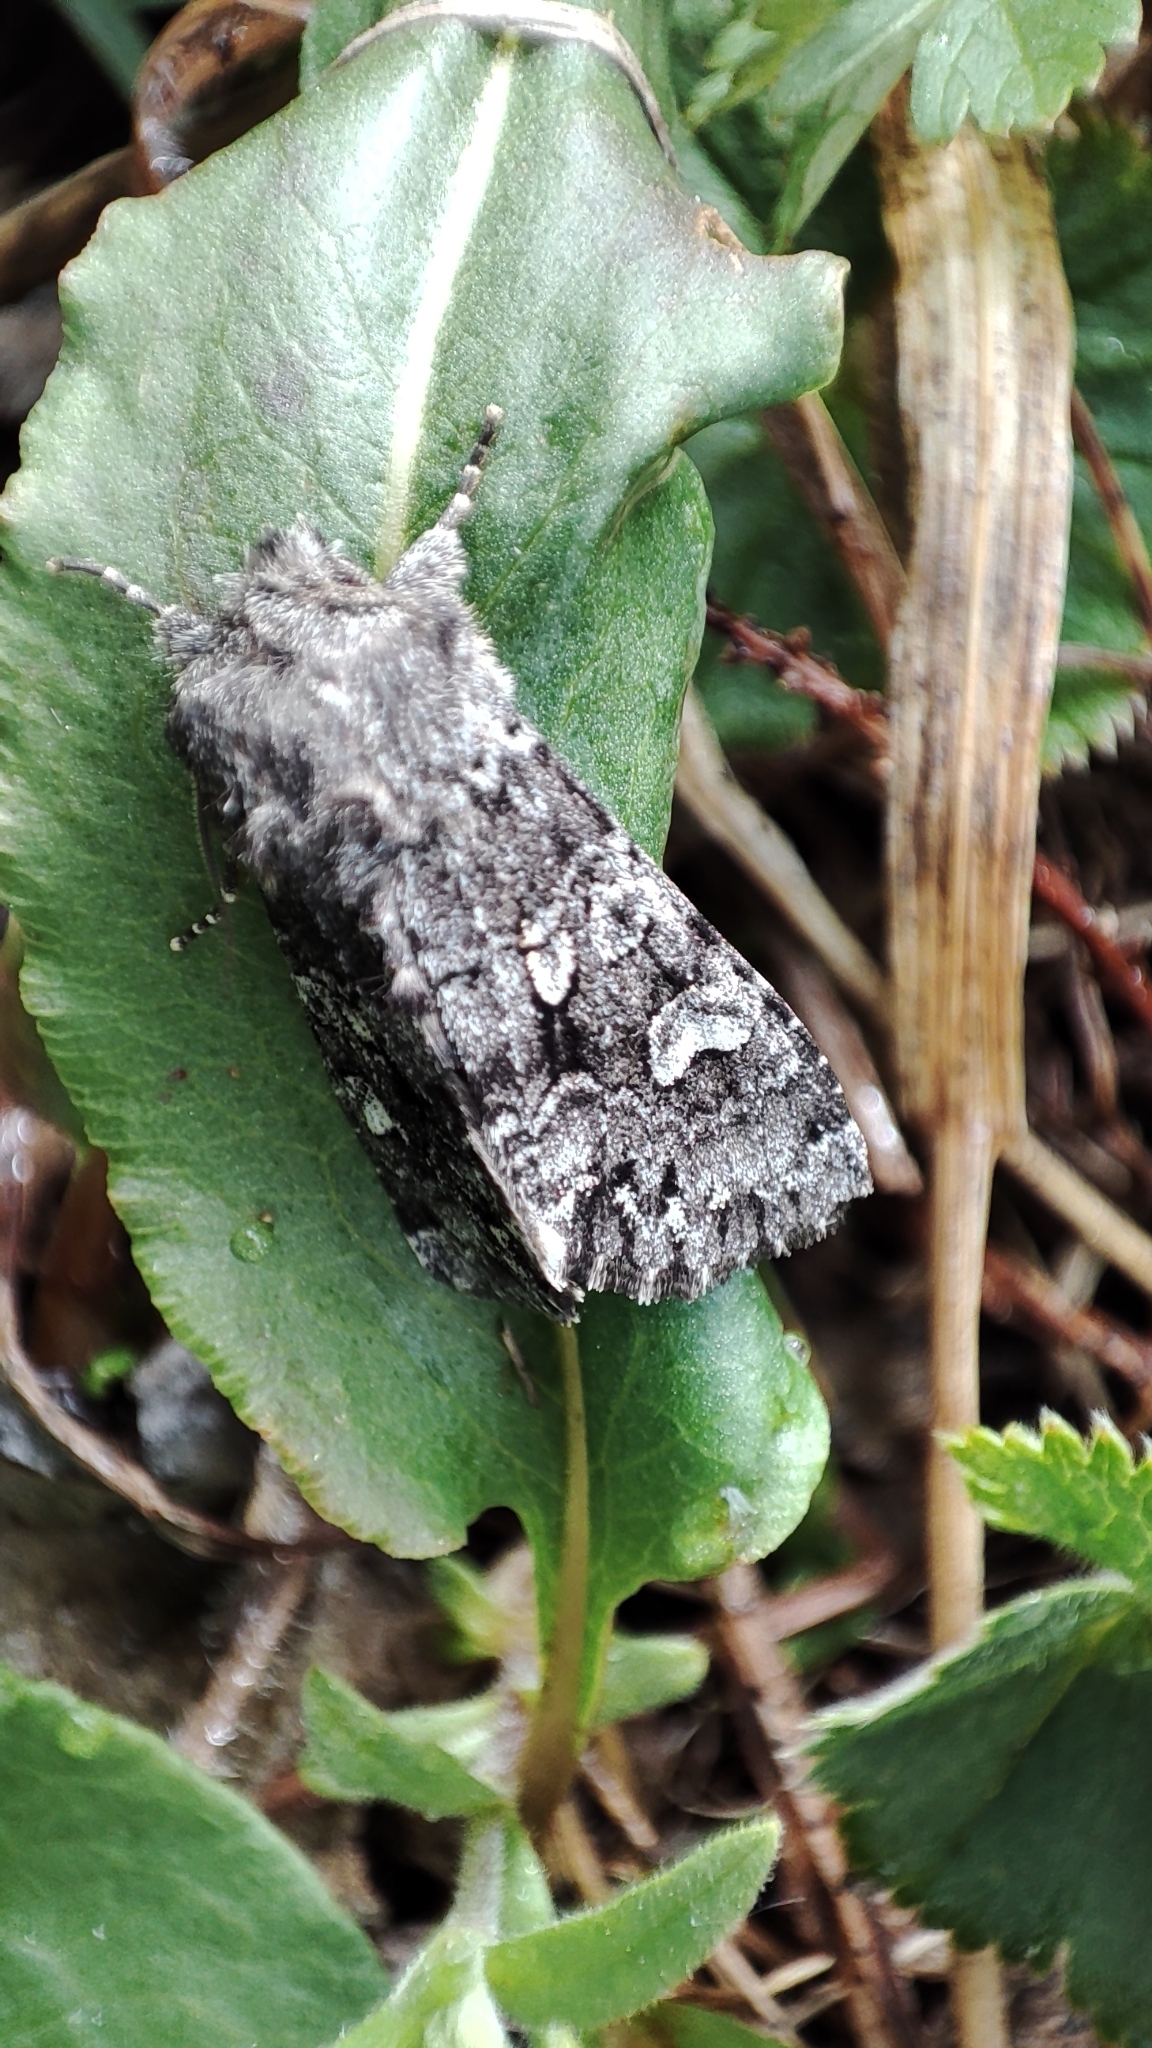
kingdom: Animalia
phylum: Arthropoda
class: Insecta
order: Lepidoptera
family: Noctuidae
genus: Papestra
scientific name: Papestra biren
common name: Glaucous shears
